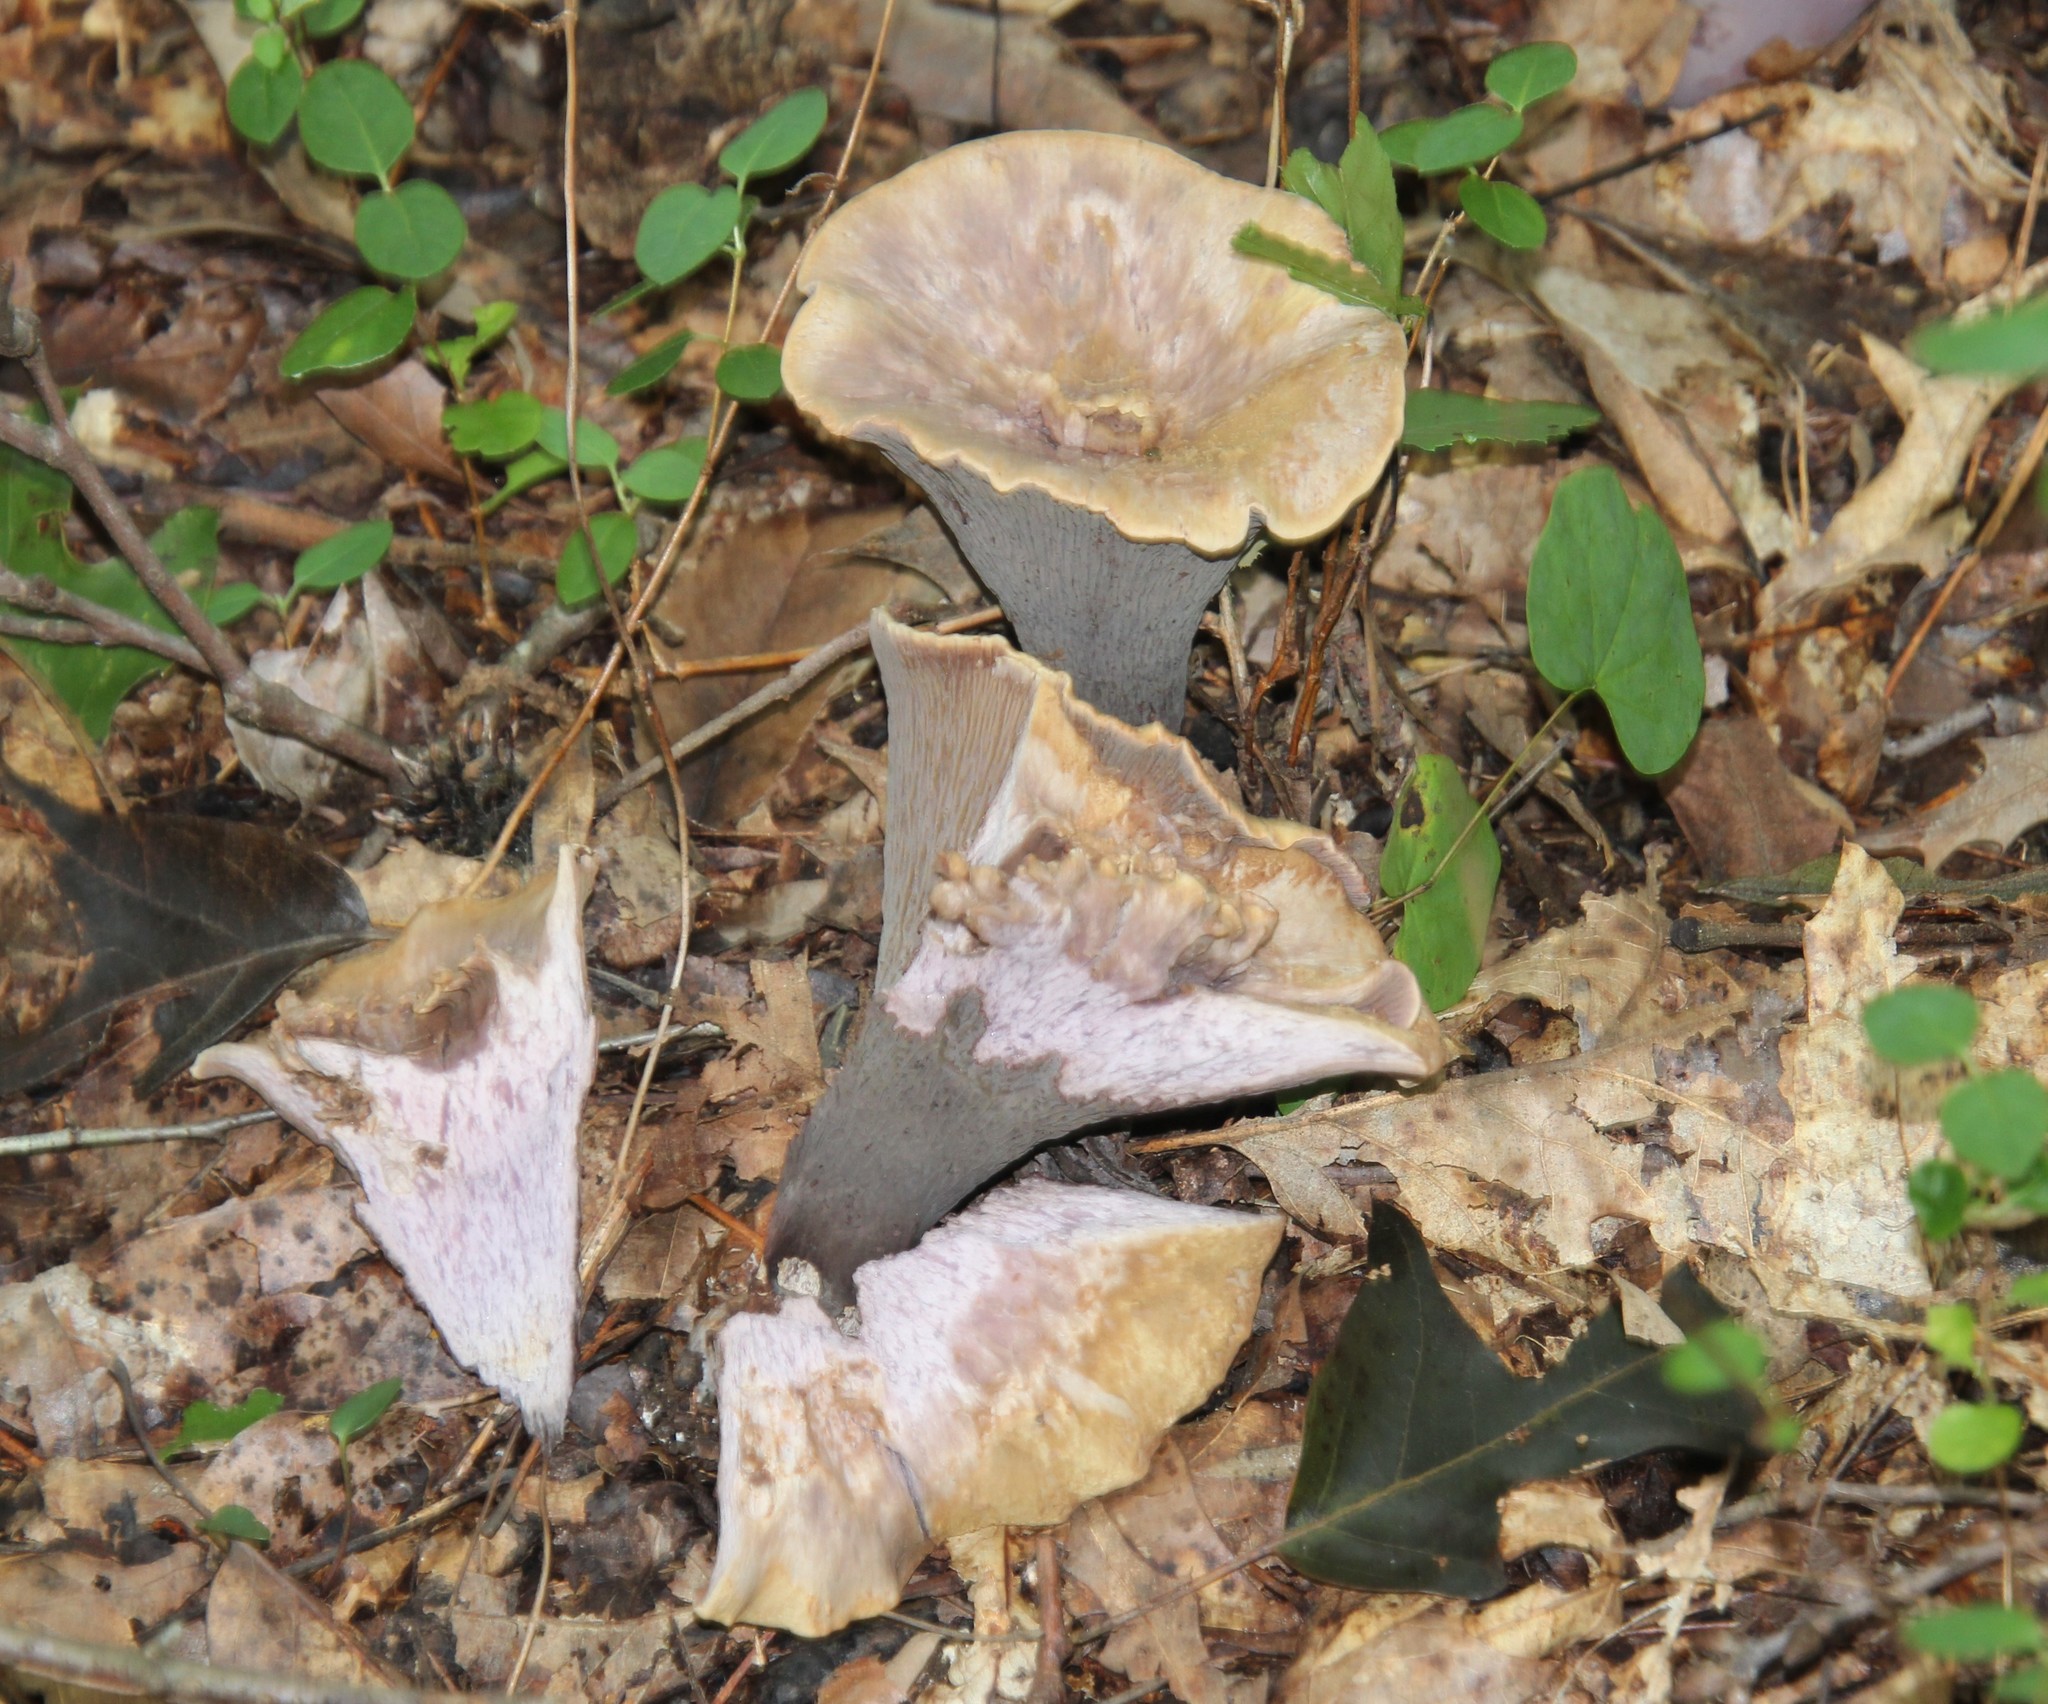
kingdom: Fungi
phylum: Basidiomycota
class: Agaricomycetes
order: Gomphales
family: Gomphaceae
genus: Gomphus
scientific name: Gomphus clavatus
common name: Pig's ear
